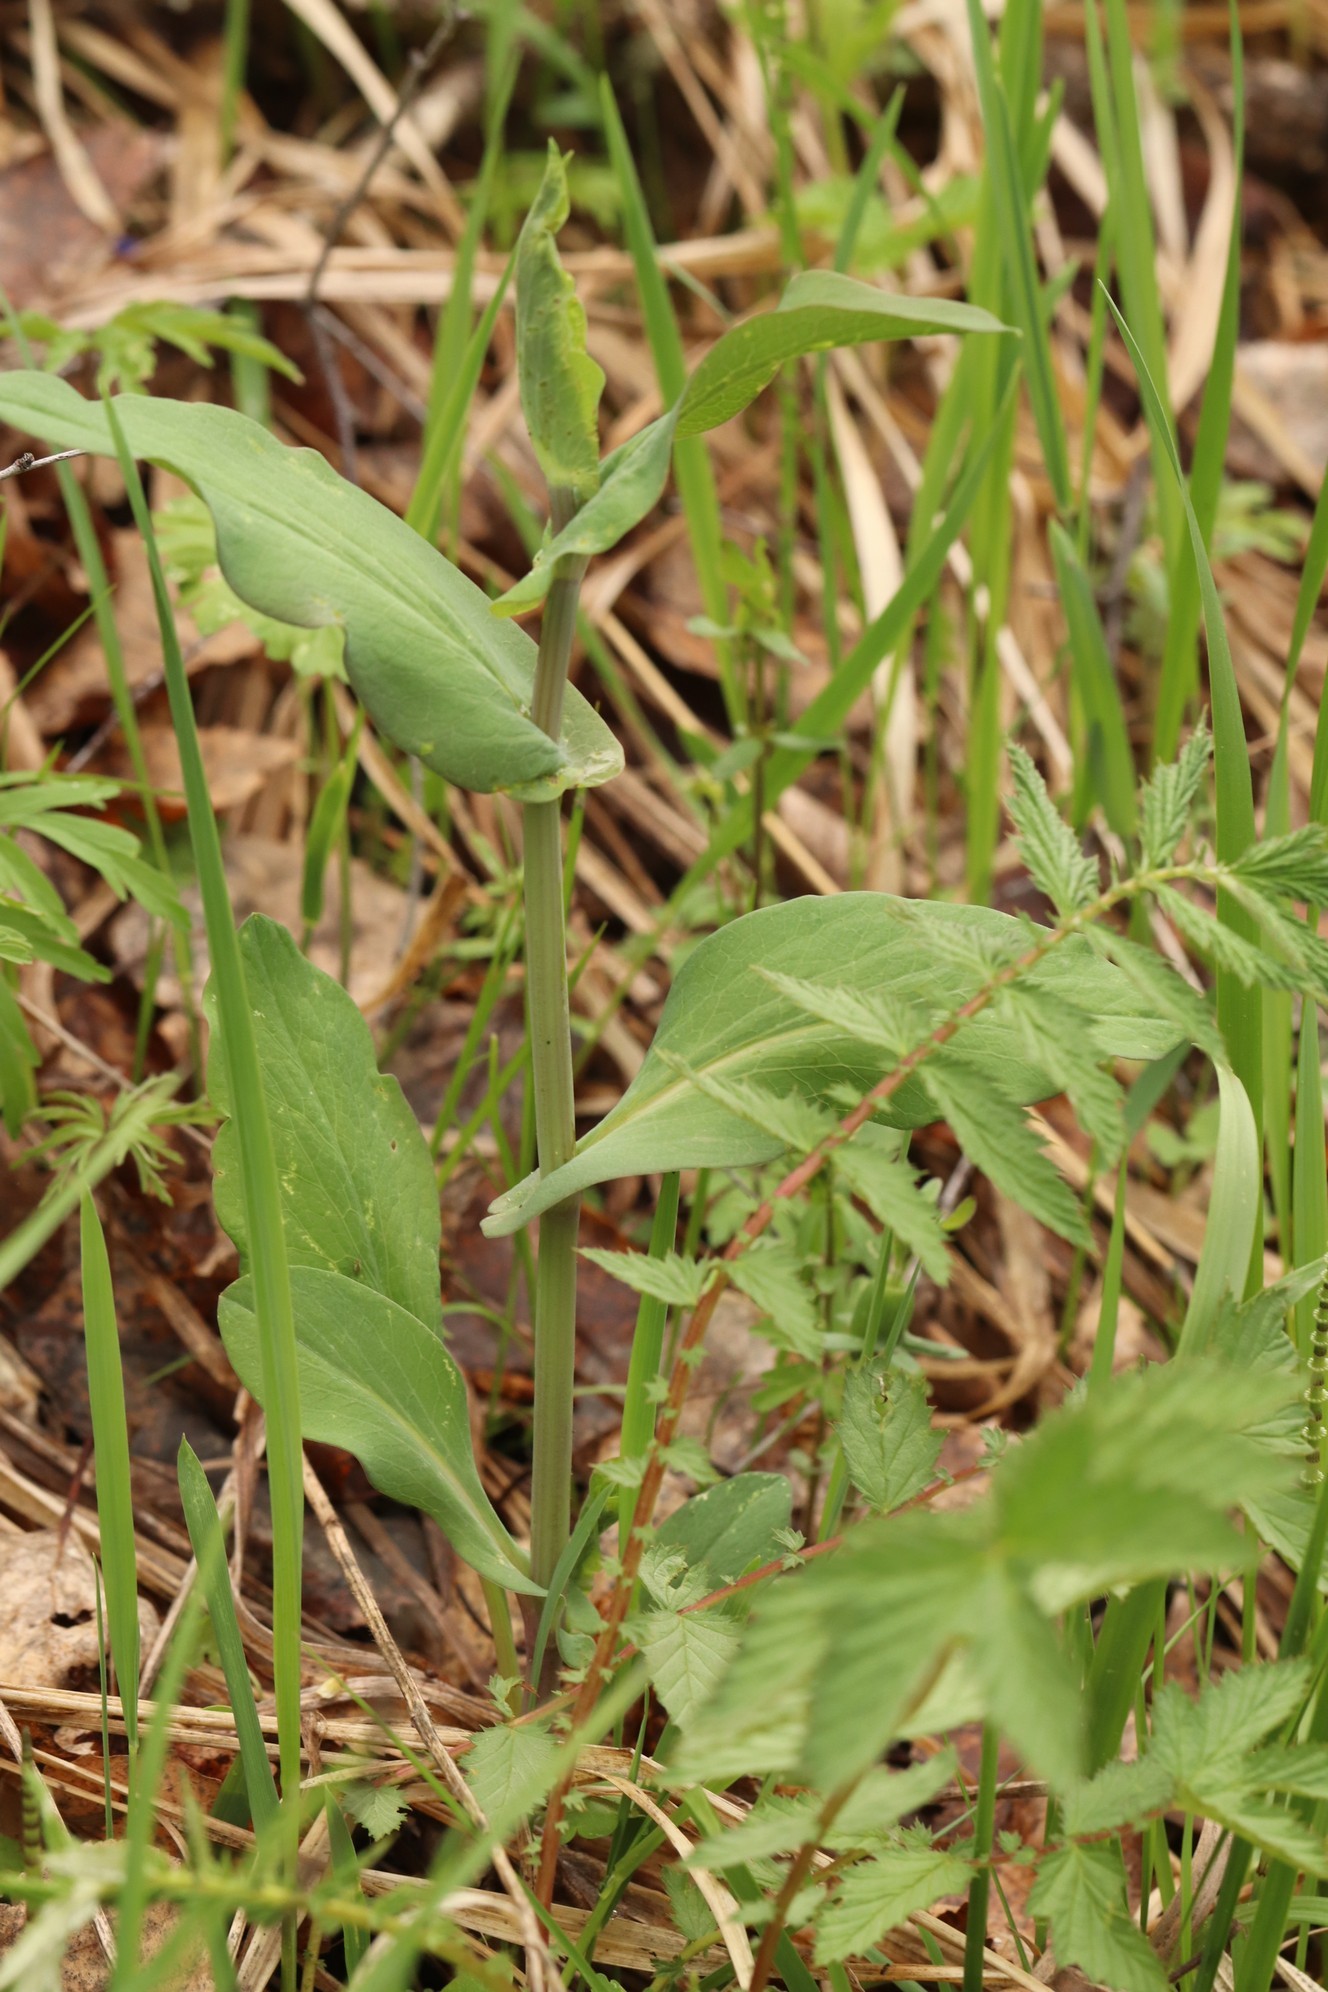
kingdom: Plantae
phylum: Tracheophyta
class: Magnoliopsida
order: Apiales
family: Apiaceae
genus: Bupleurum
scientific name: Bupleurum aureum
